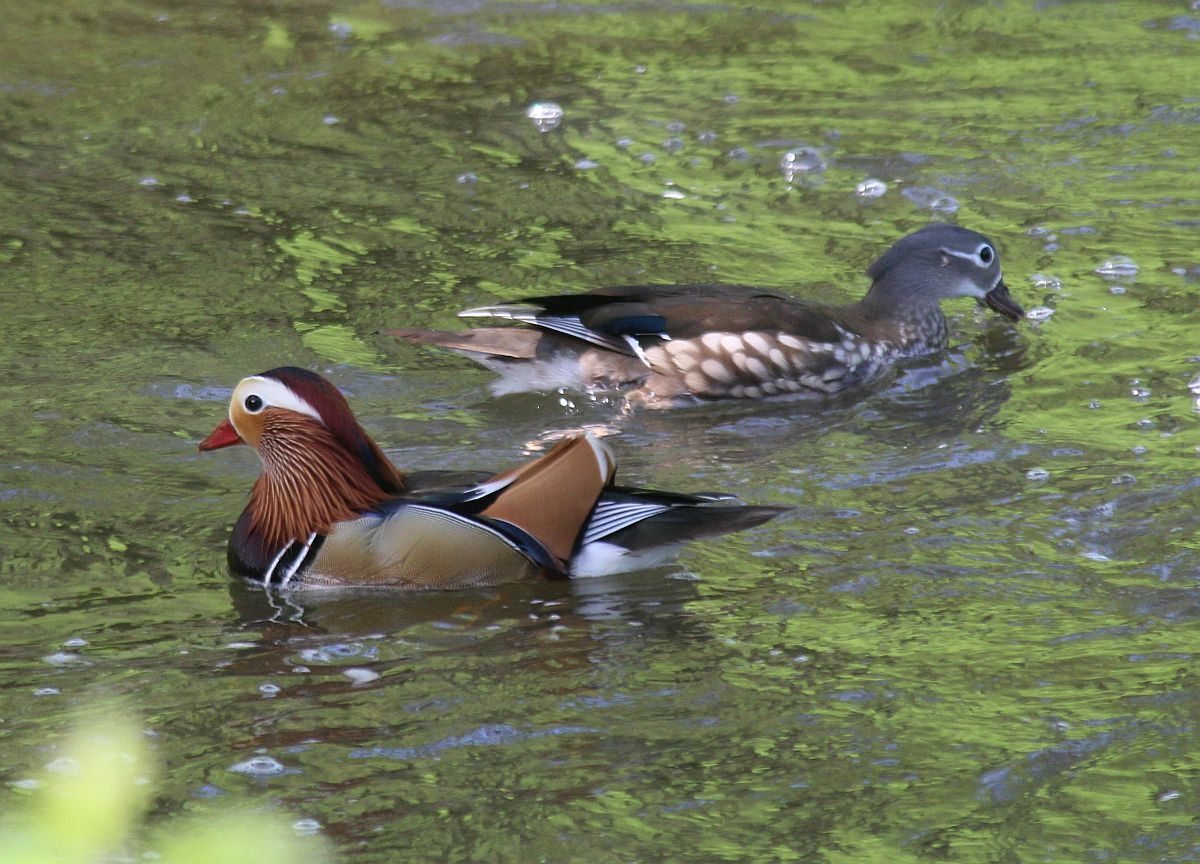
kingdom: Animalia
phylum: Chordata
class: Aves
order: Anseriformes
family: Anatidae
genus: Aix
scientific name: Aix galericulata
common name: Mandarin duck
